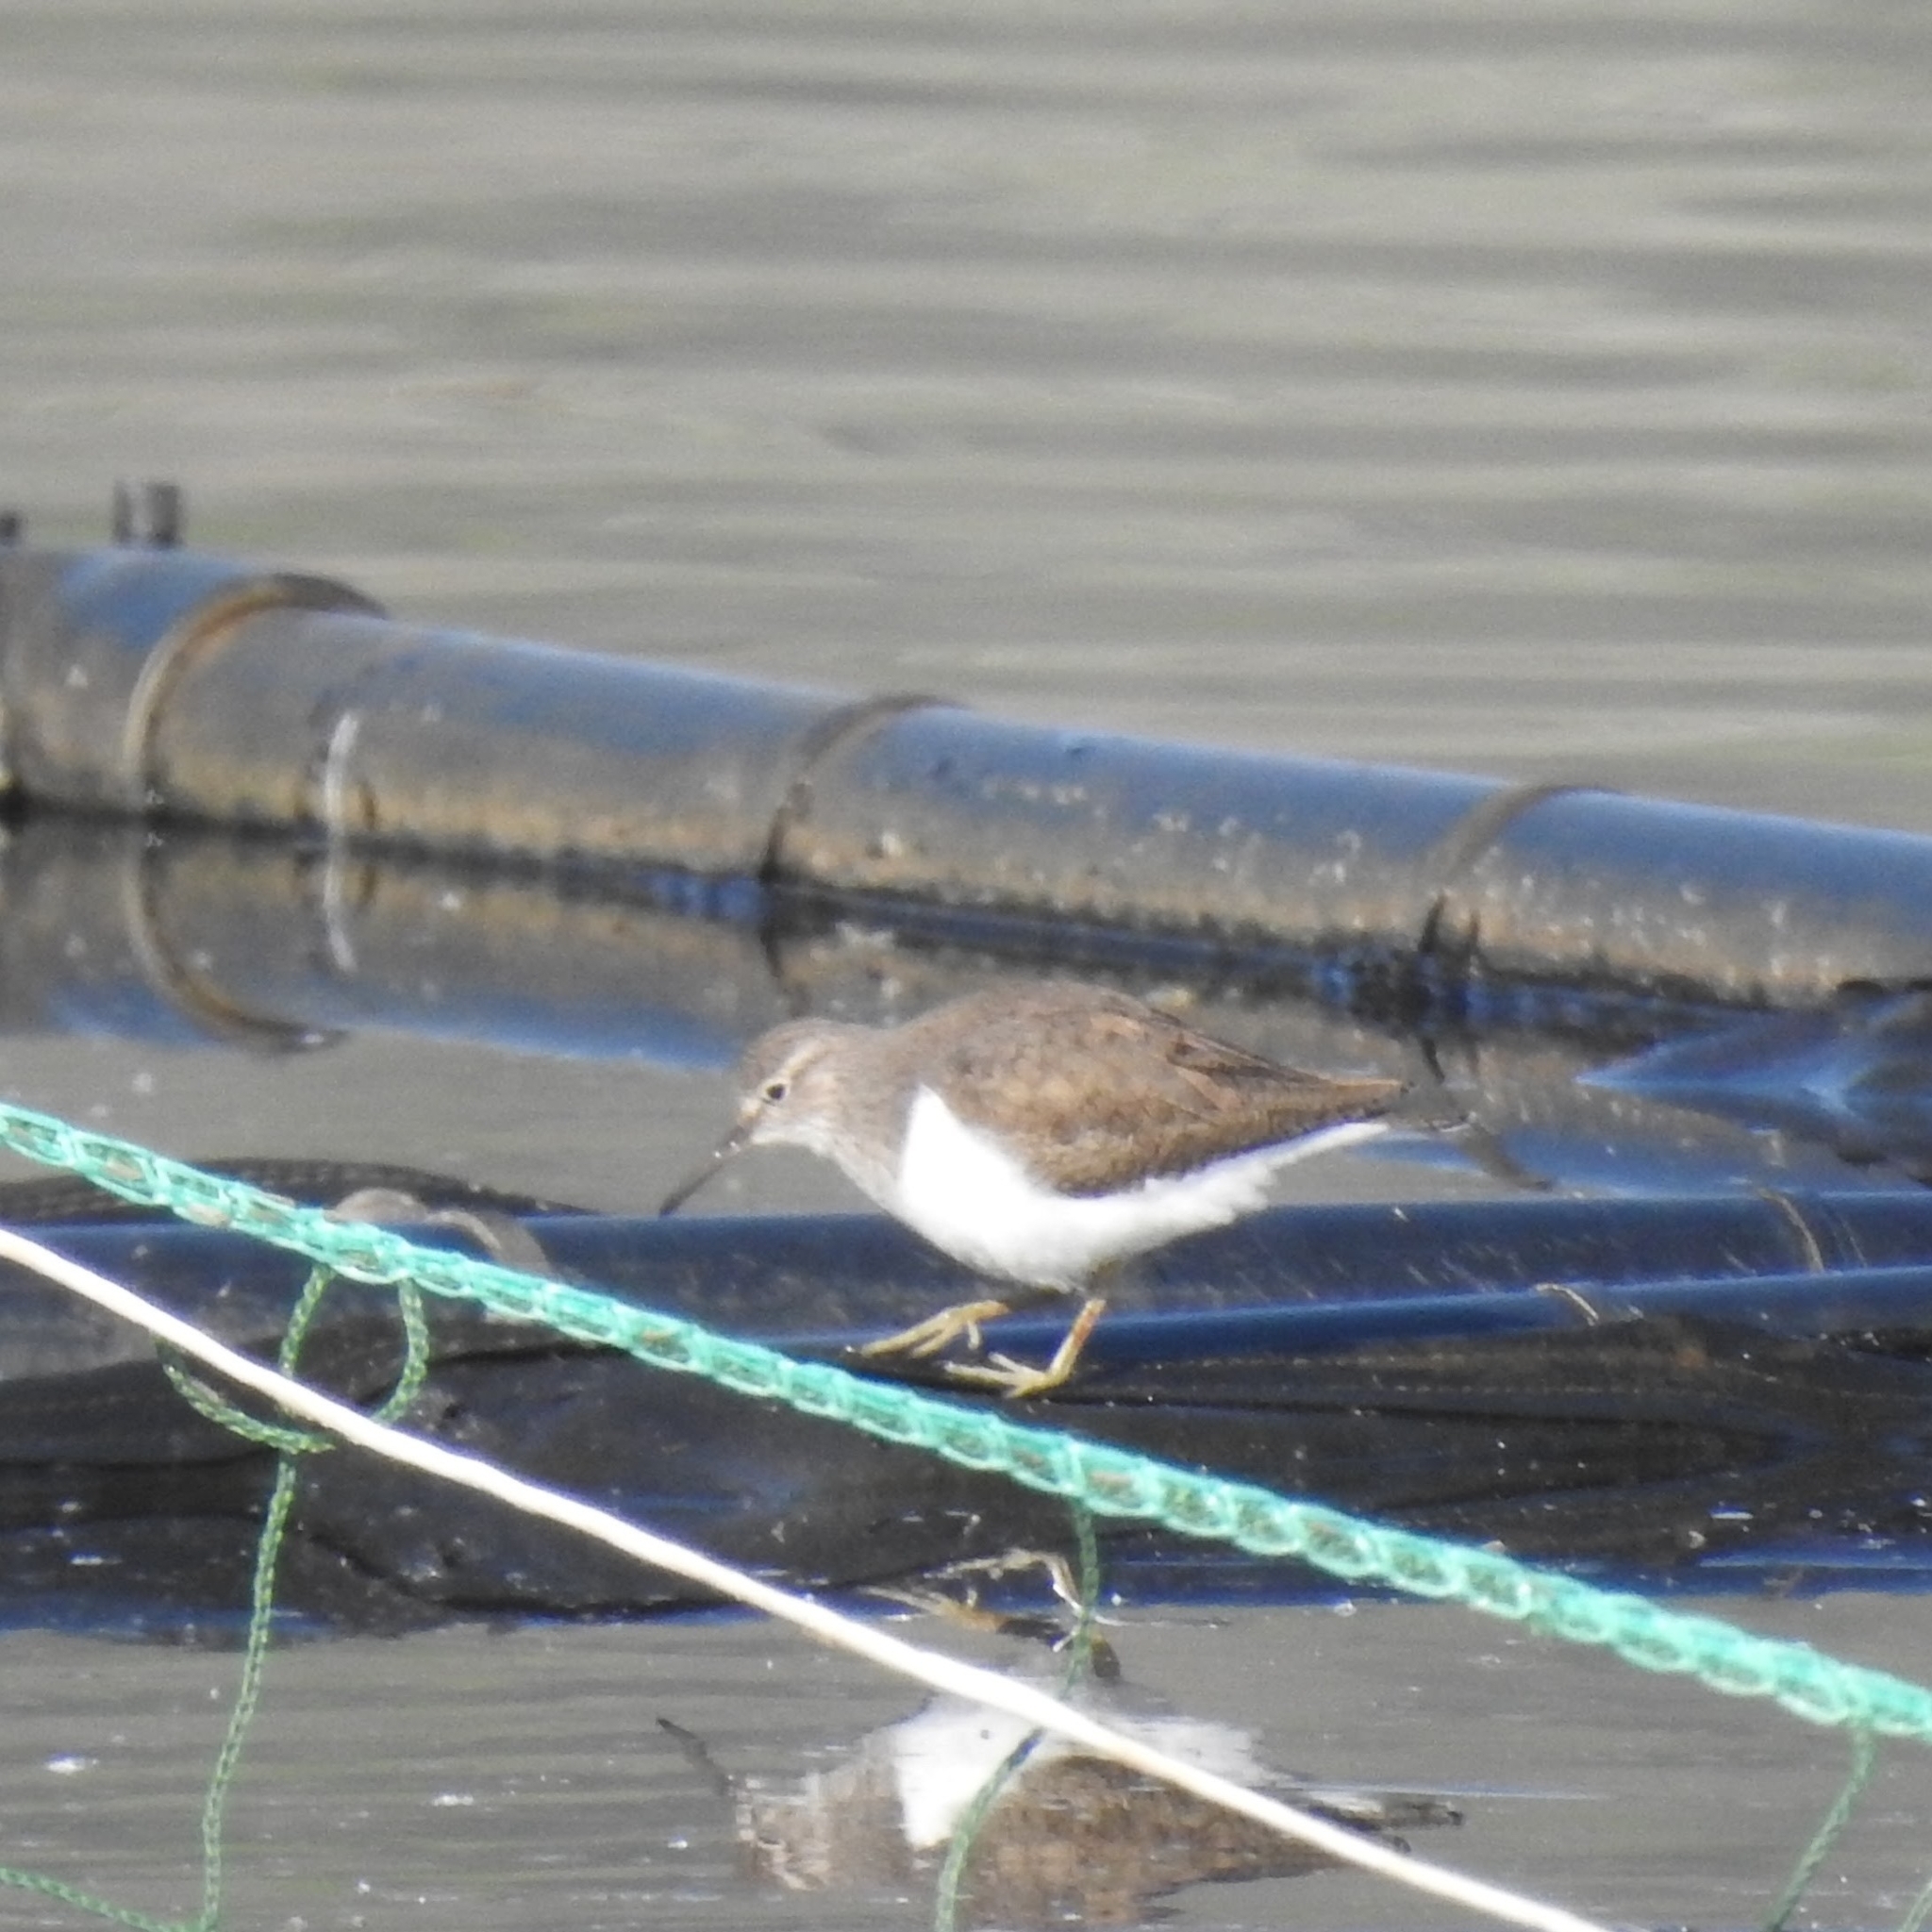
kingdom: Animalia
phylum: Chordata
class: Aves
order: Charadriiformes
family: Scolopacidae
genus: Actitis
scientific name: Actitis hypoleucos
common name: Common sandpiper
